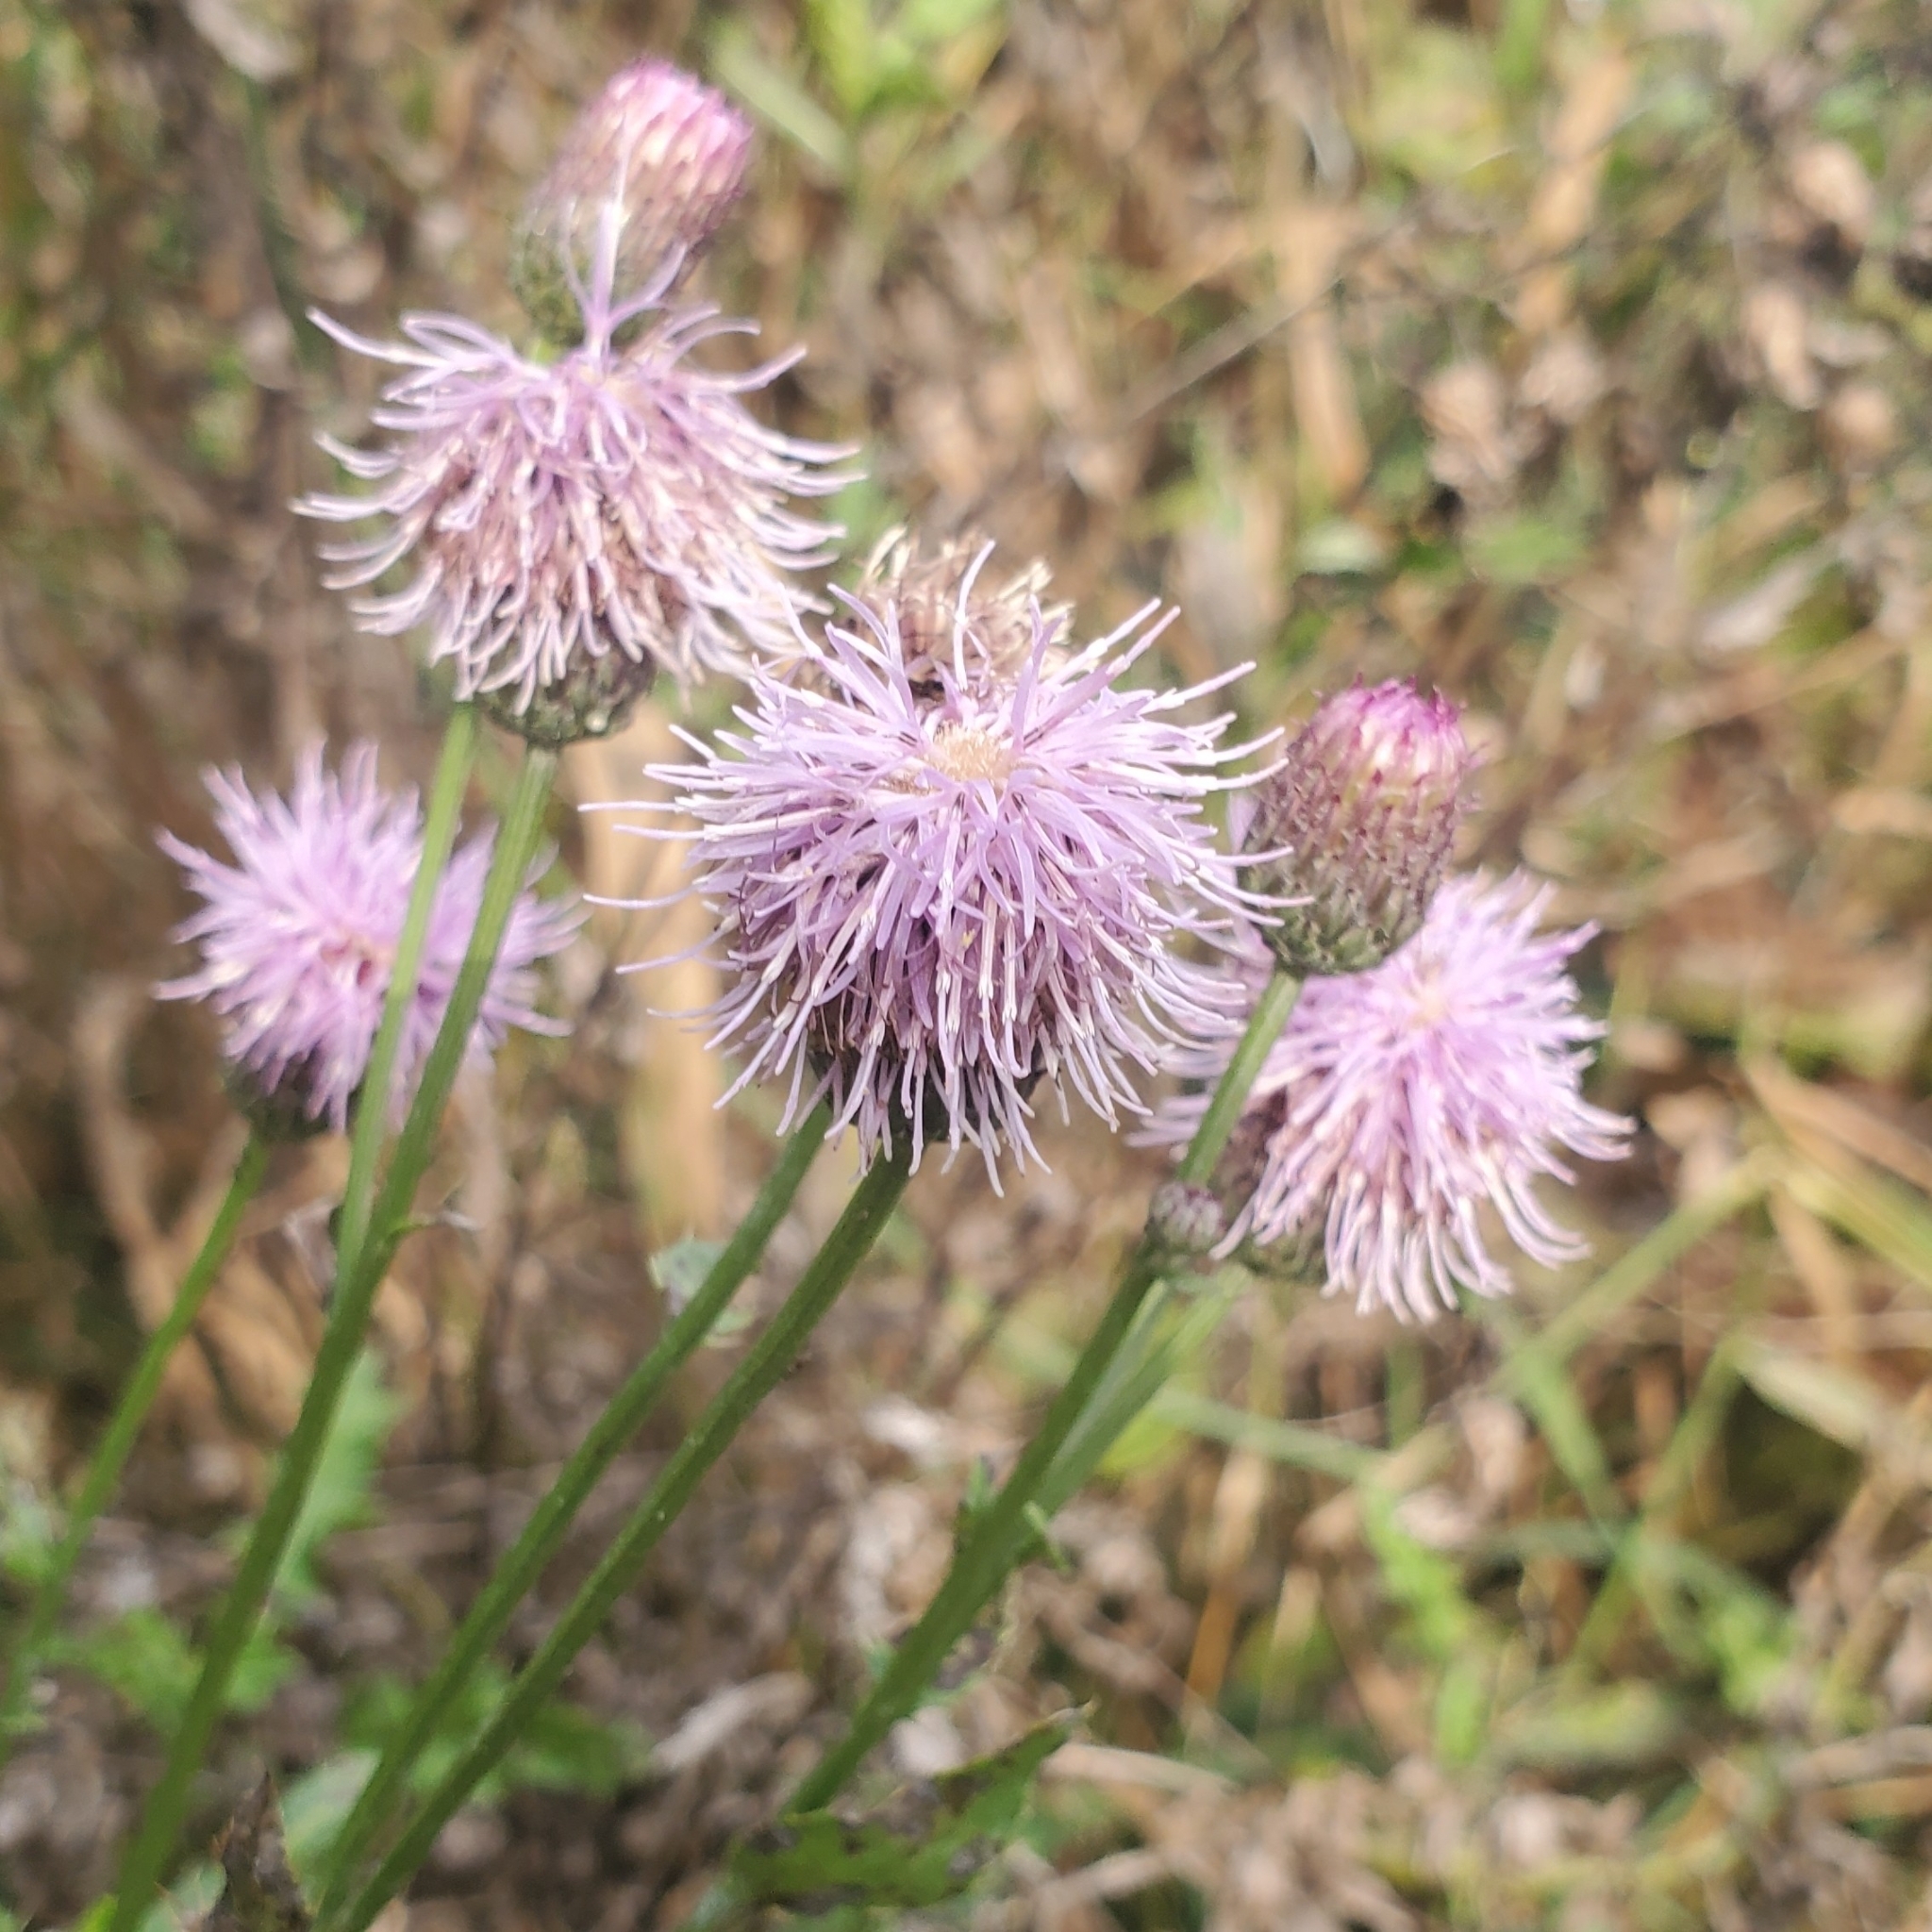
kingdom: Plantae
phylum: Tracheophyta
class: Magnoliopsida
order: Asterales
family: Asteraceae
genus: Cirsium
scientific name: Cirsium arvense
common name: Creeping thistle
